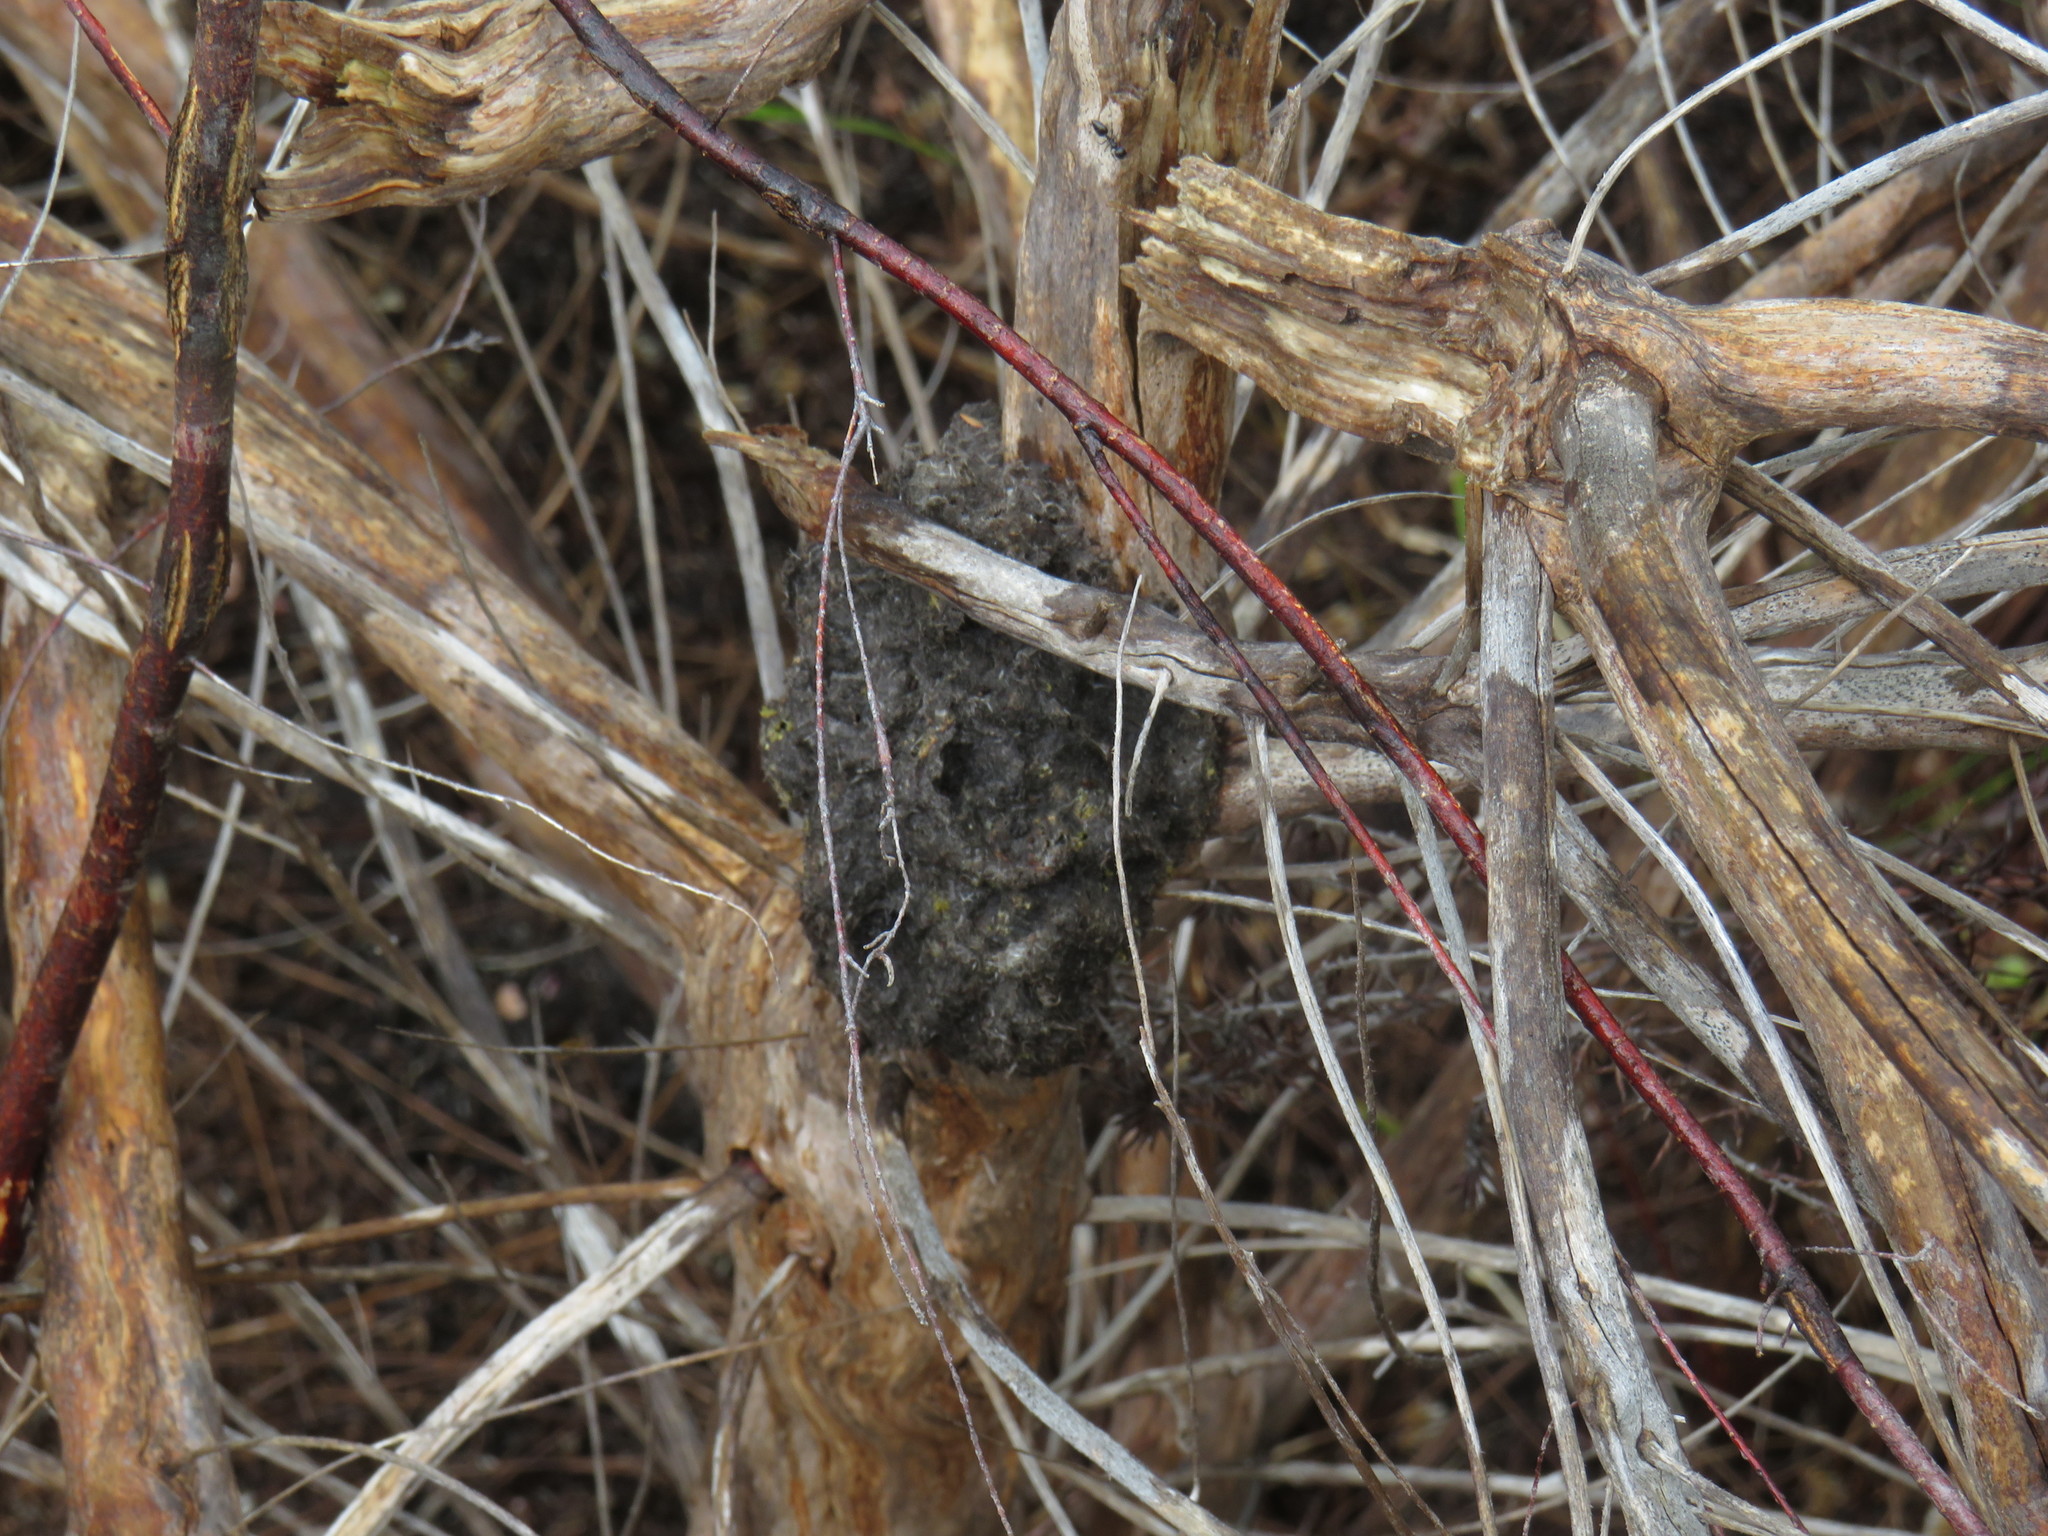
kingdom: Animalia
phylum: Arthropoda
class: Insecta
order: Hymenoptera
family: Formicidae
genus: Crematogaster
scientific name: Crematogaster peringueyi
